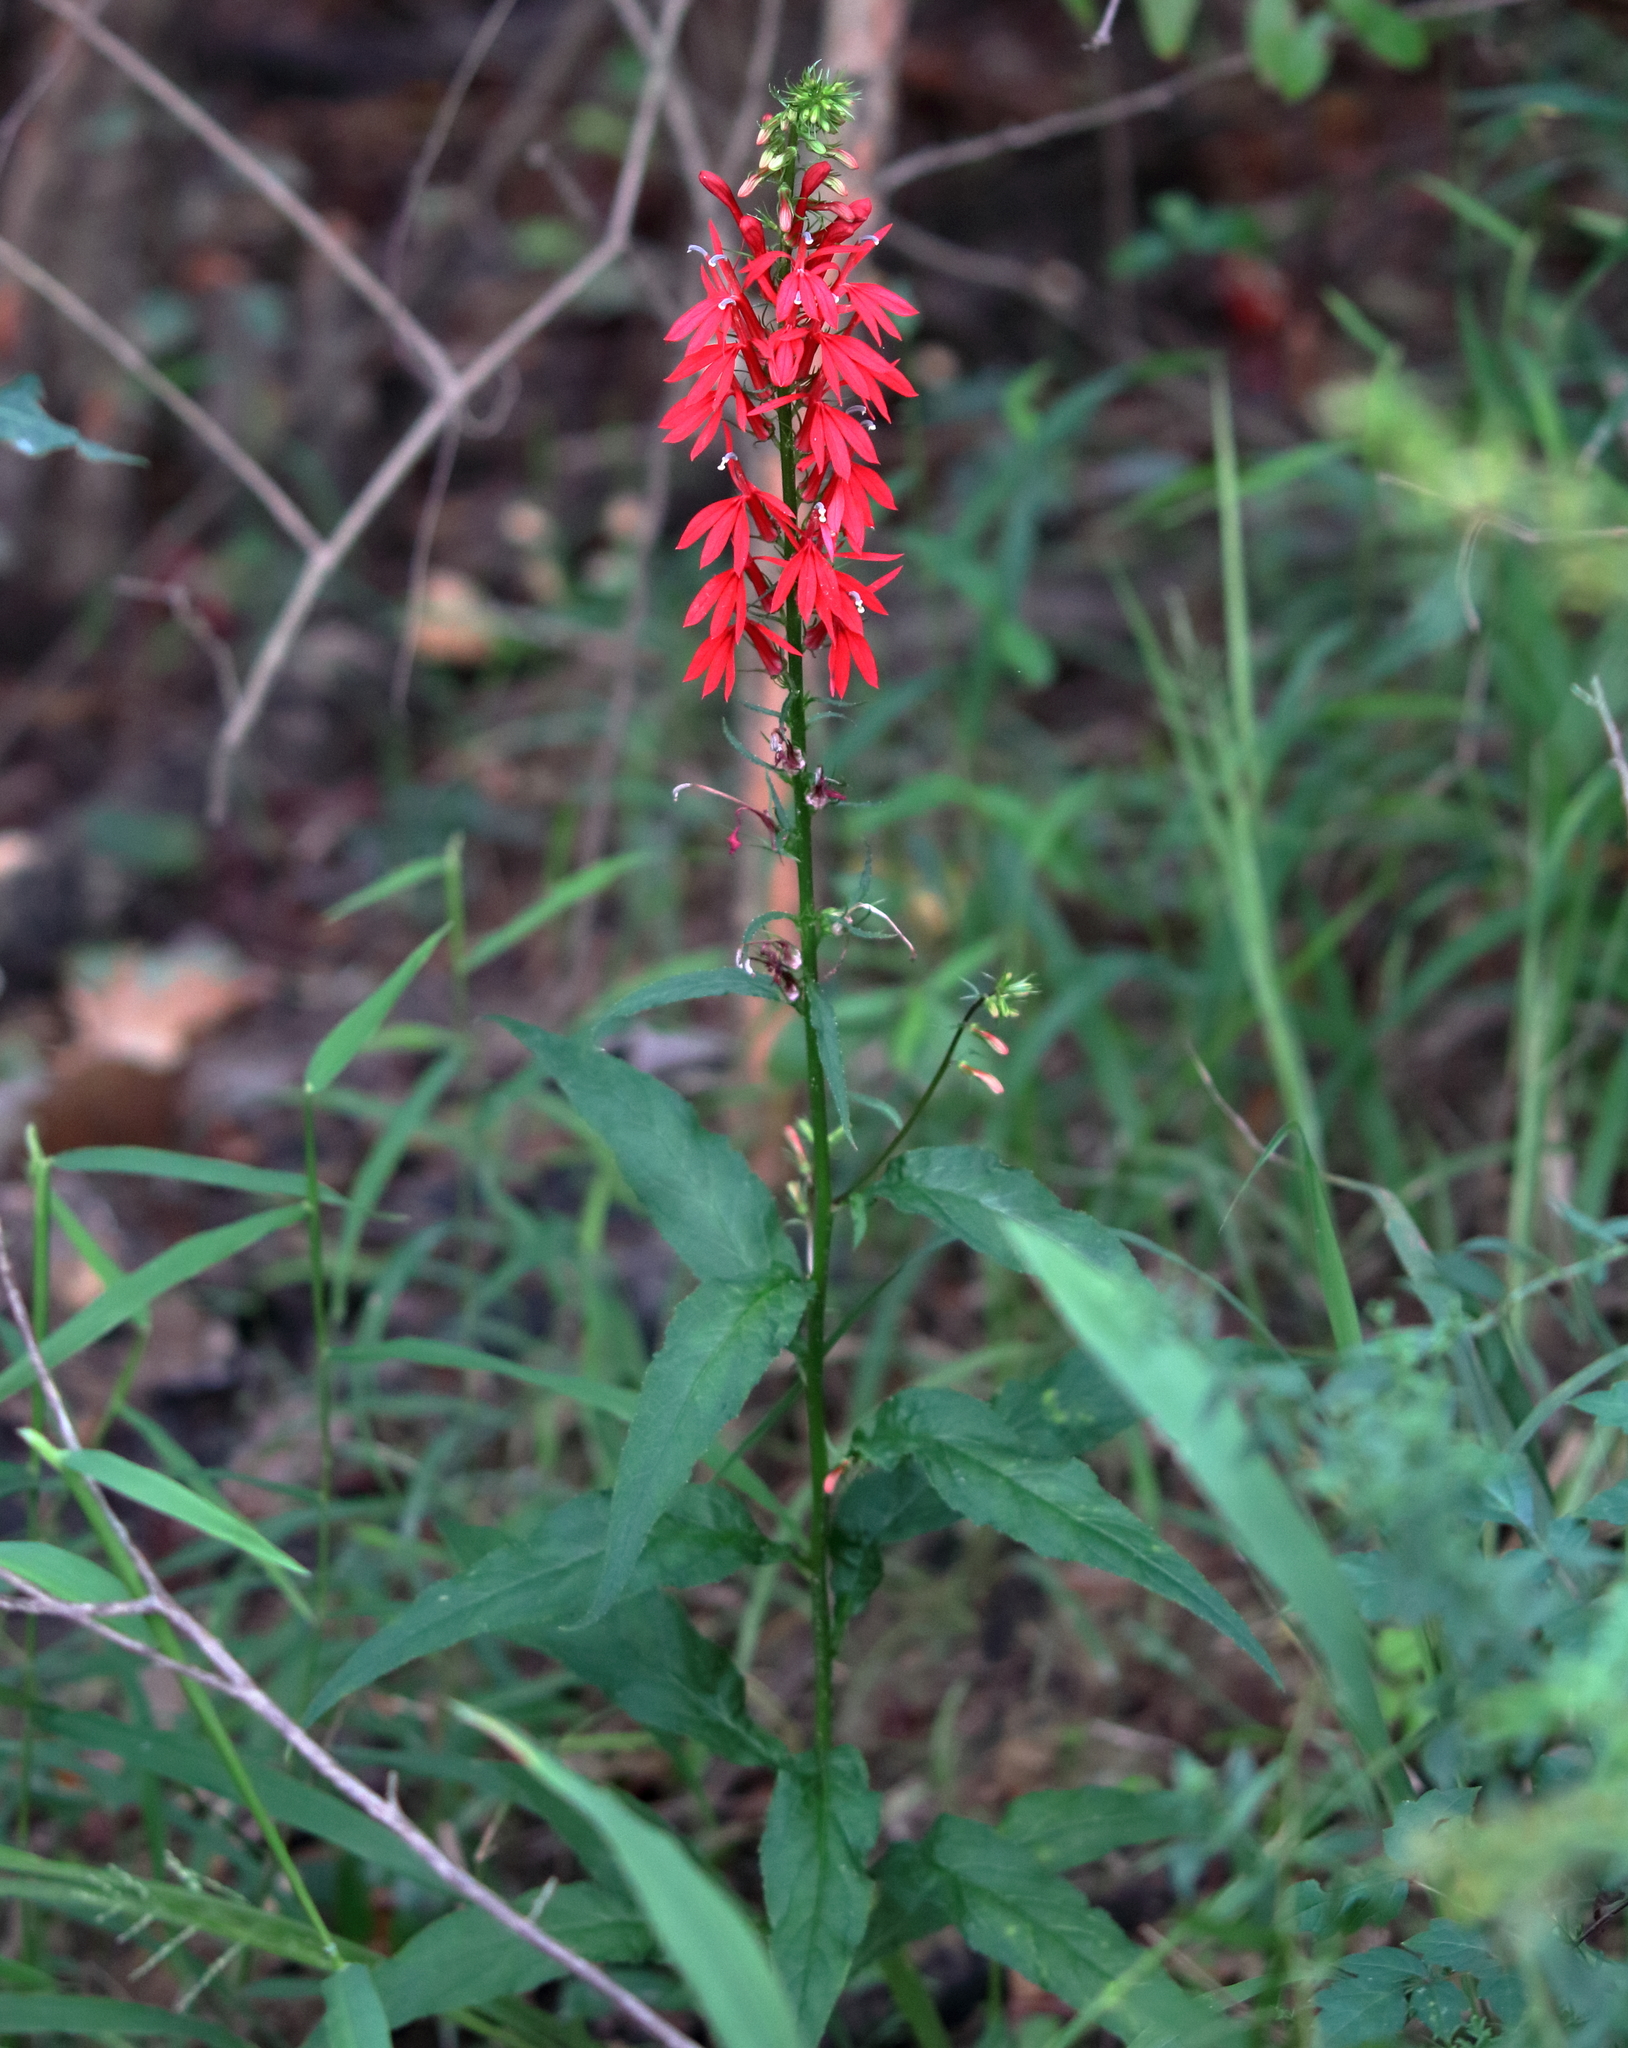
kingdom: Plantae
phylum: Tracheophyta
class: Magnoliopsida
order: Asterales
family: Campanulaceae
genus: Lobelia
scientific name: Lobelia cardinalis
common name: Cardinal flower
